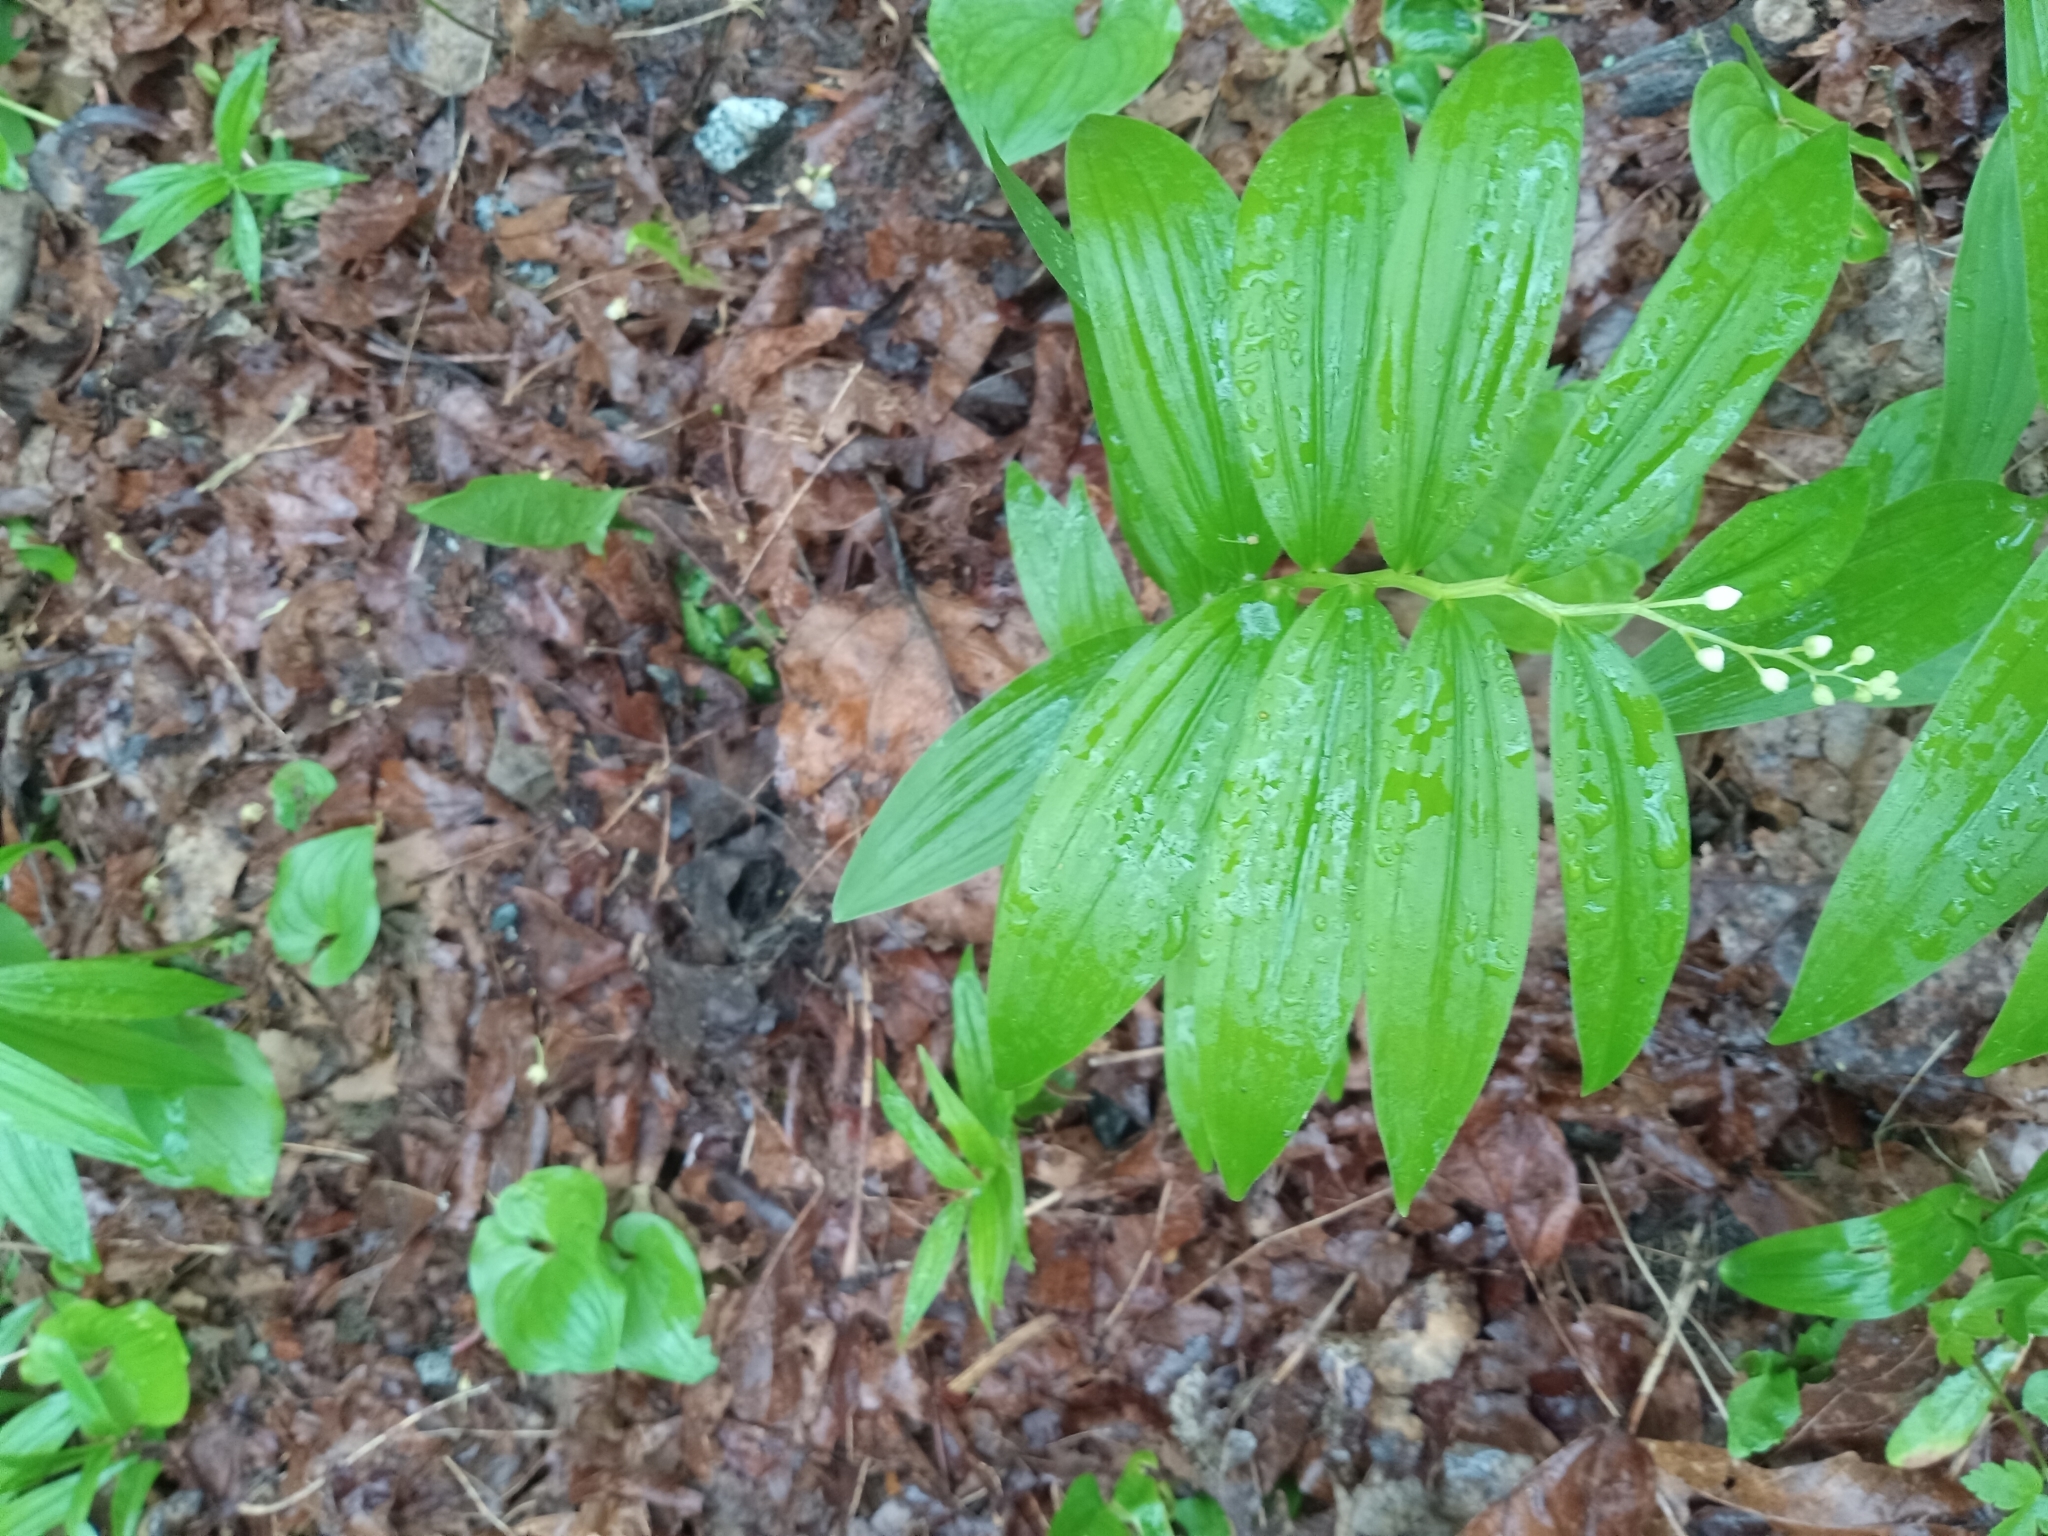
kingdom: Plantae
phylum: Tracheophyta
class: Liliopsida
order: Asparagales
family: Asparagaceae
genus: Maianthemum
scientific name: Maianthemum stellatum
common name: Little false solomon's seal
